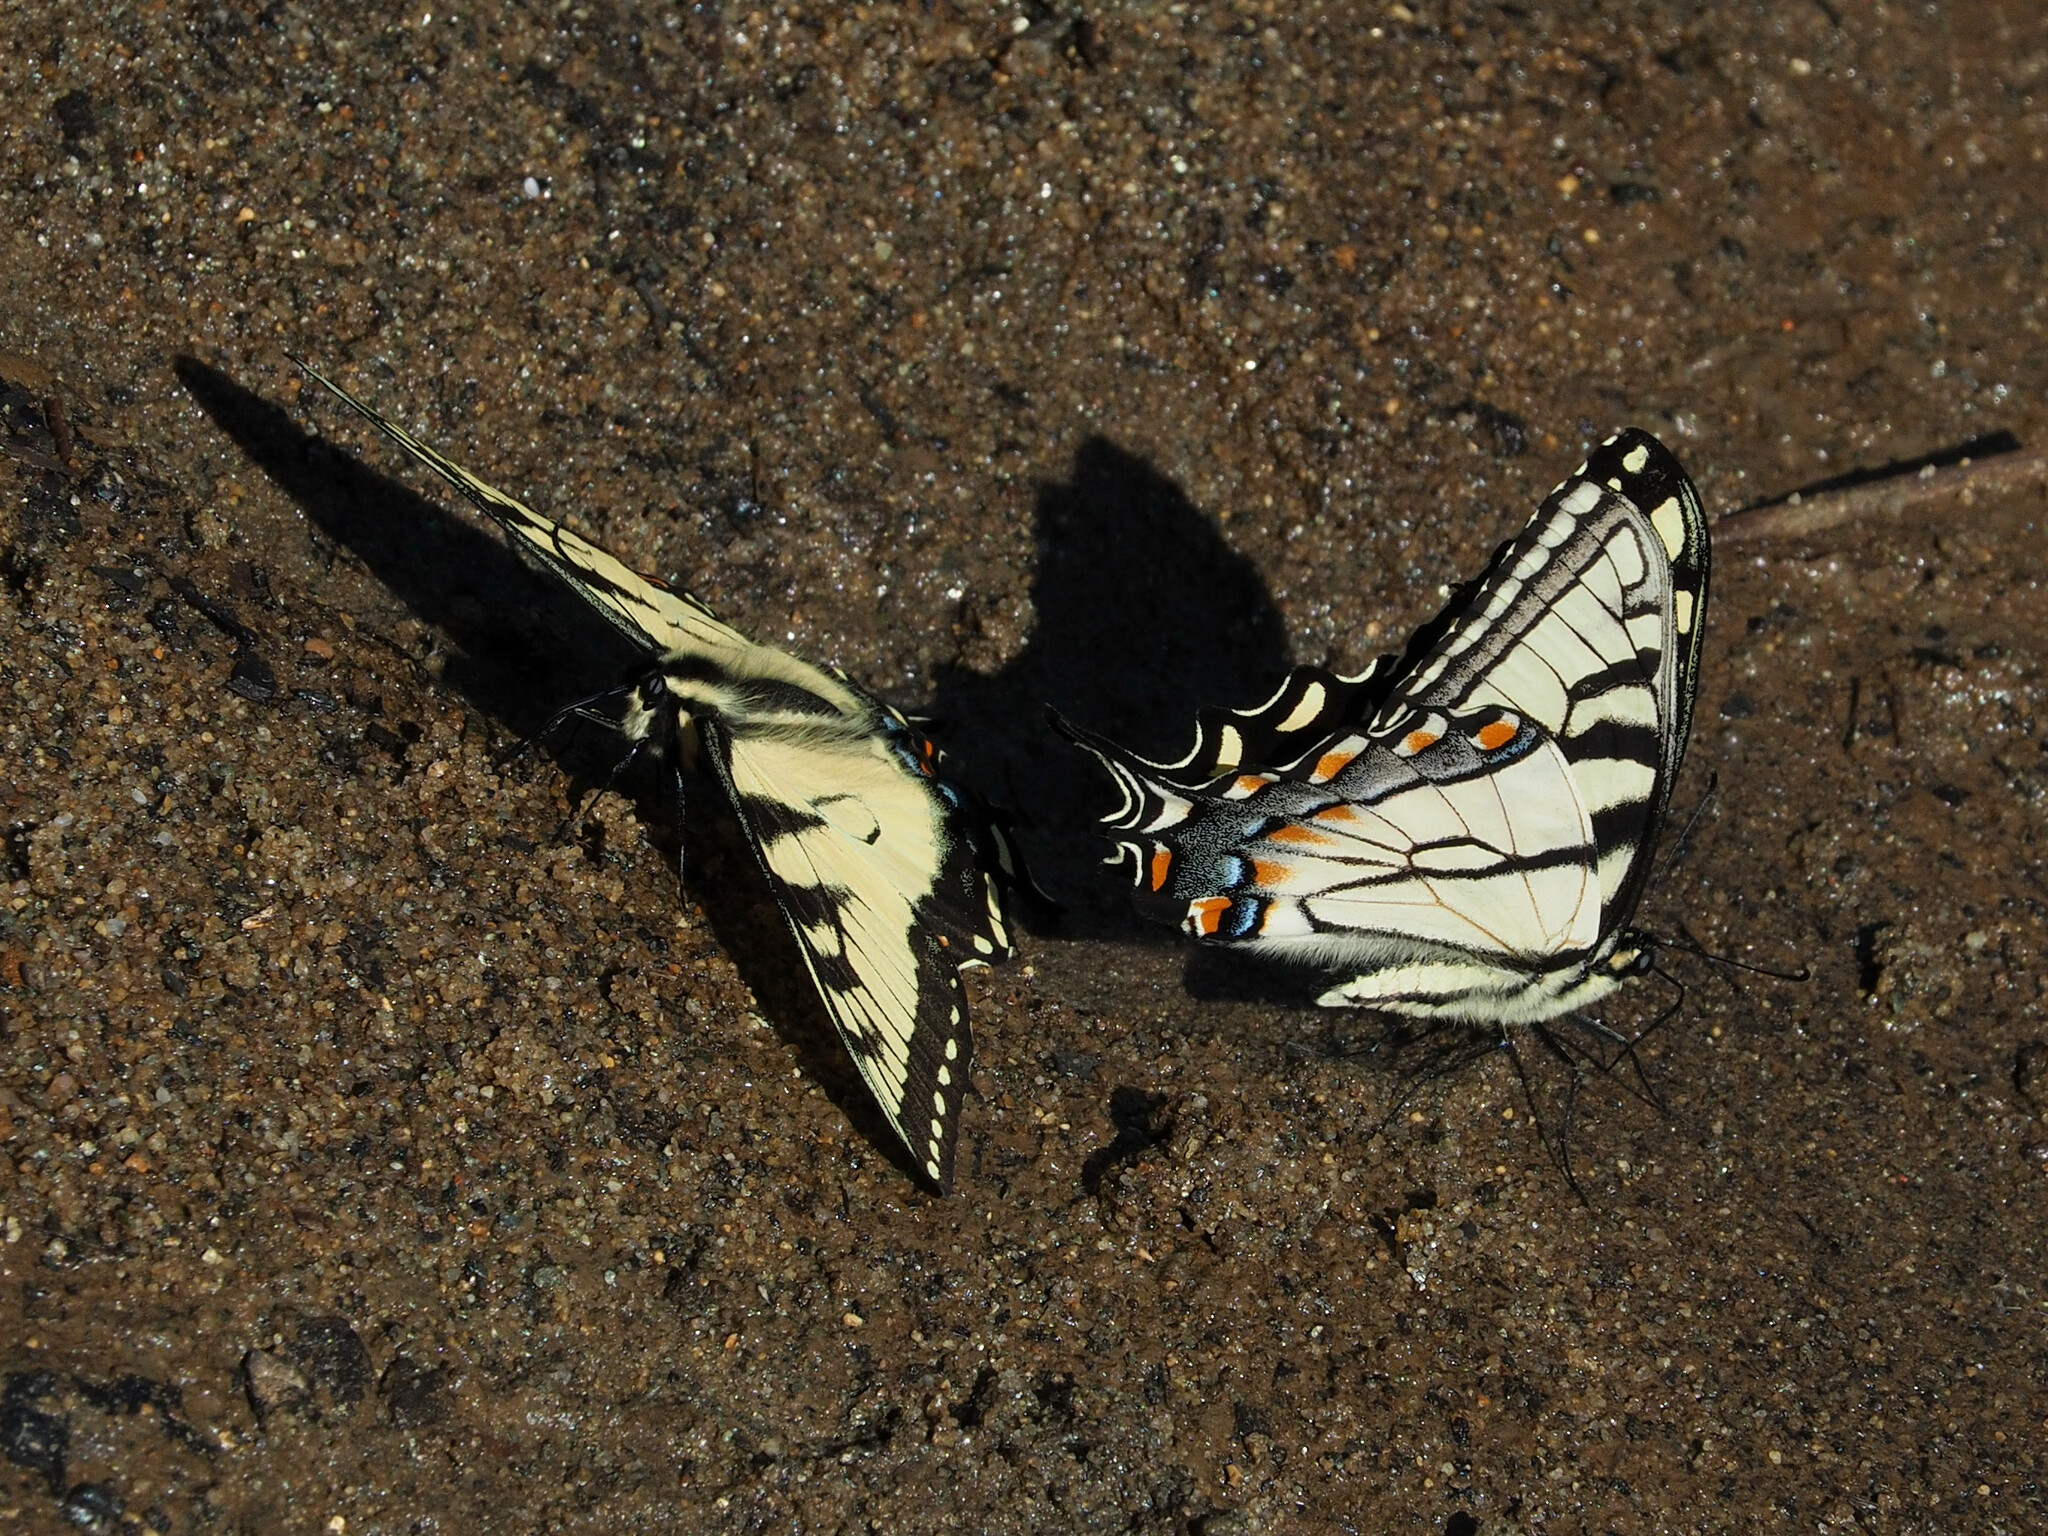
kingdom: Animalia
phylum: Arthropoda
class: Insecta
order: Lepidoptera
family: Papilionidae
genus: Papilio
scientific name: Papilio glaucus
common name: Tiger swallowtail
